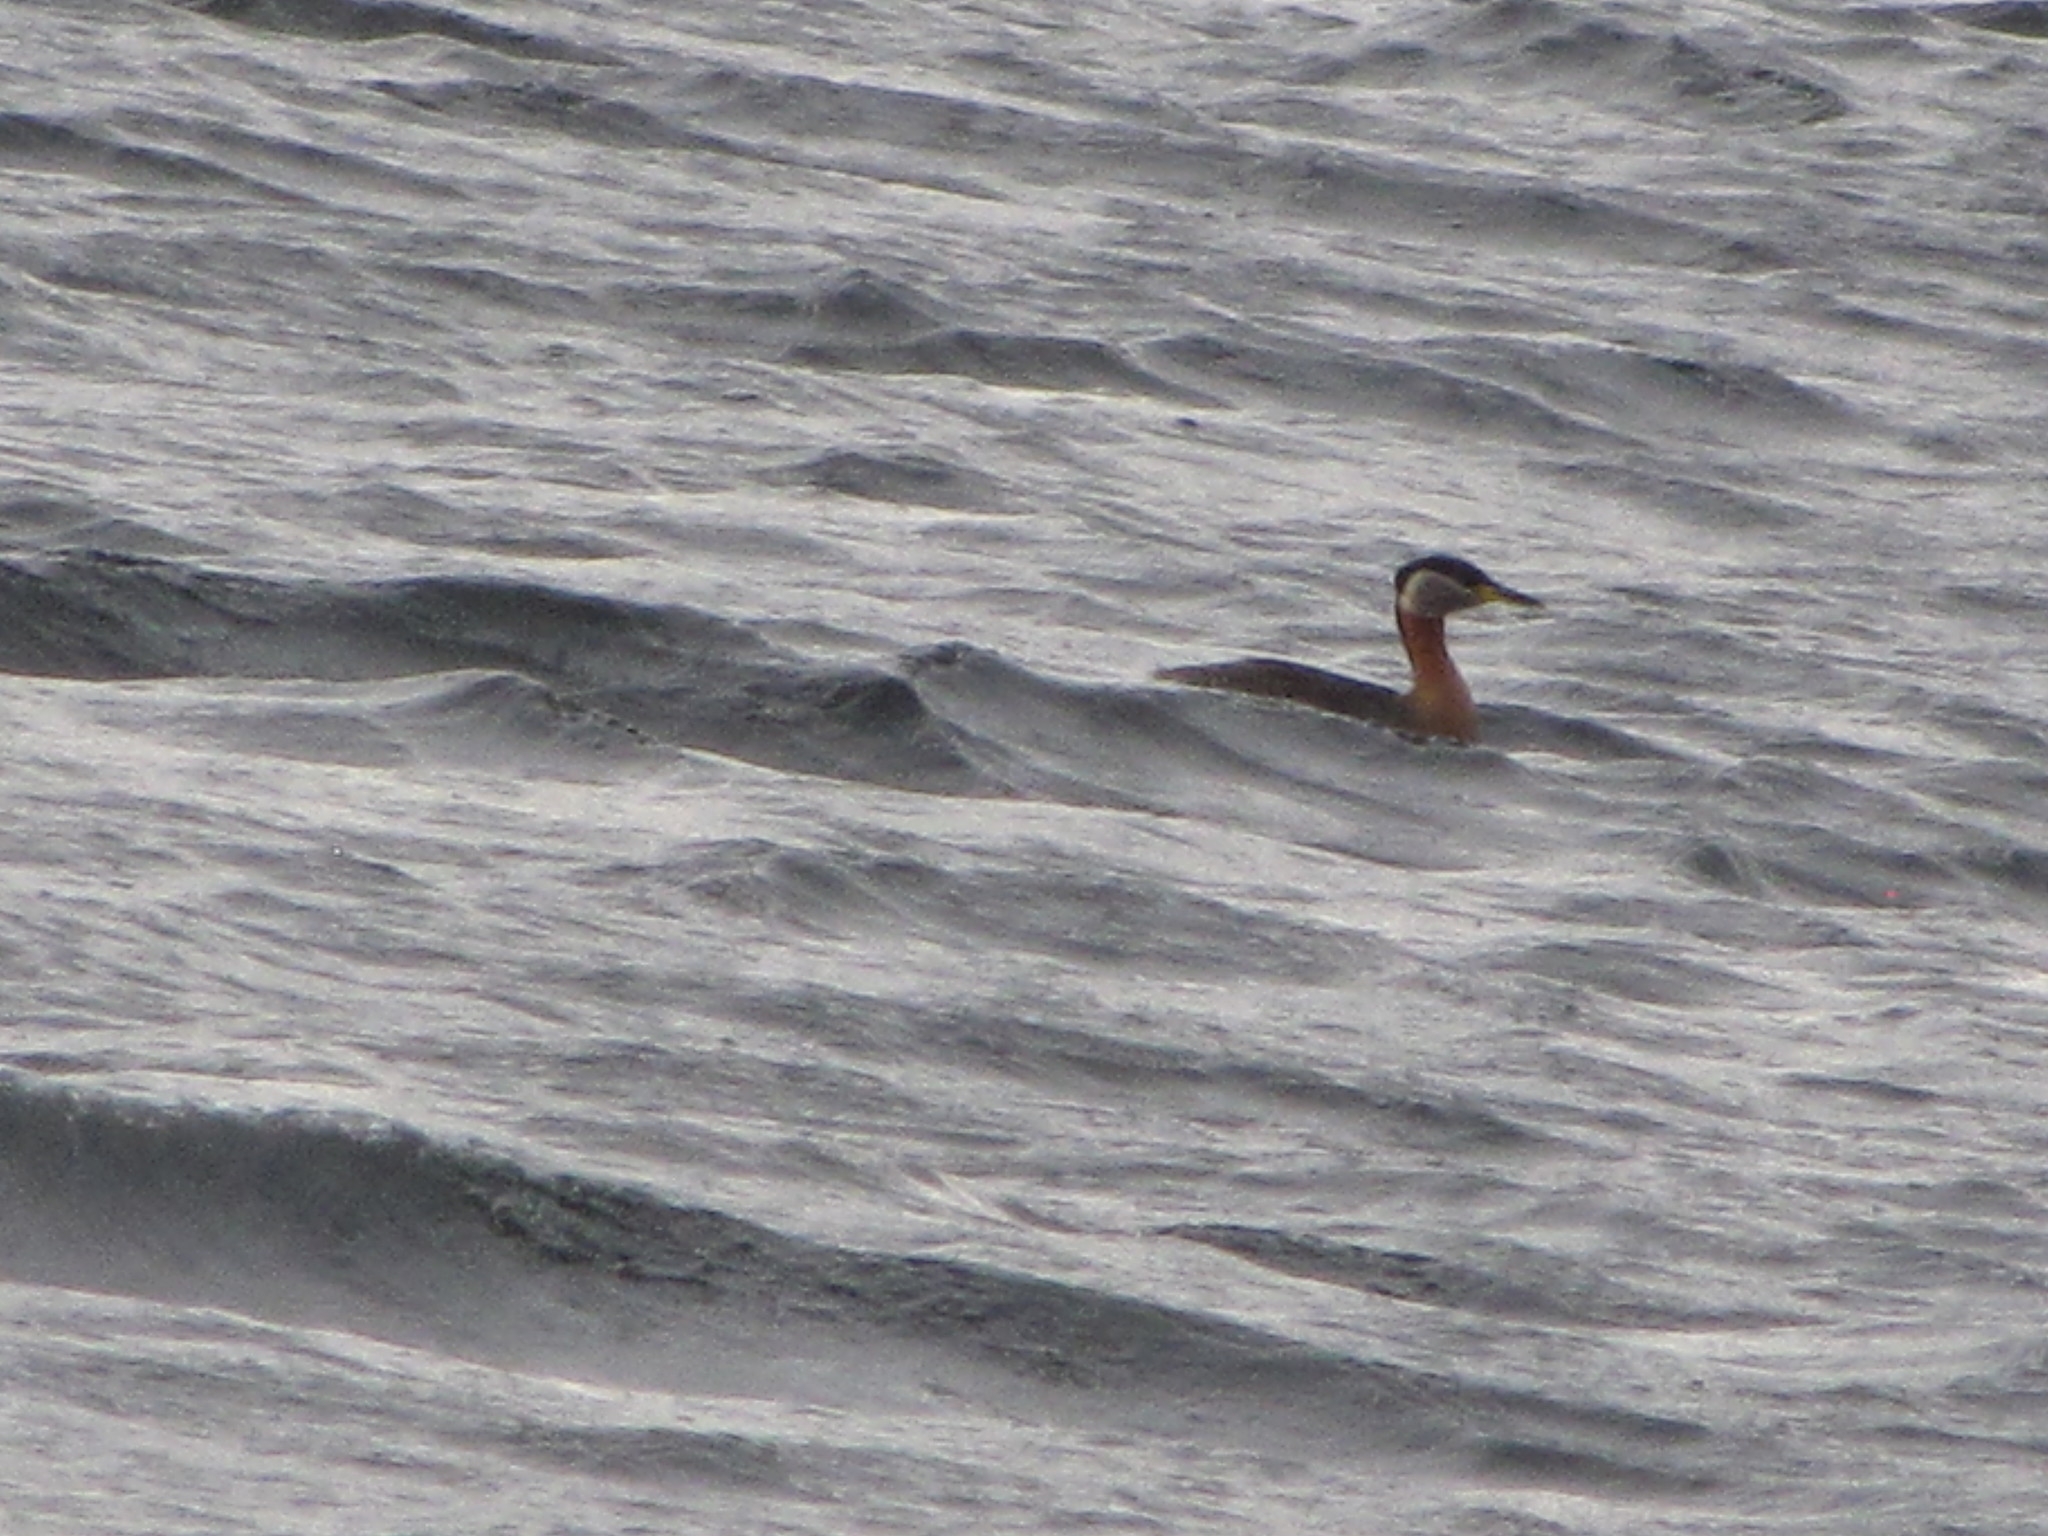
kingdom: Animalia
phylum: Chordata
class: Aves
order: Podicipediformes
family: Podicipedidae
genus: Podiceps
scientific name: Podiceps grisegena
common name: Red-necked grebe
